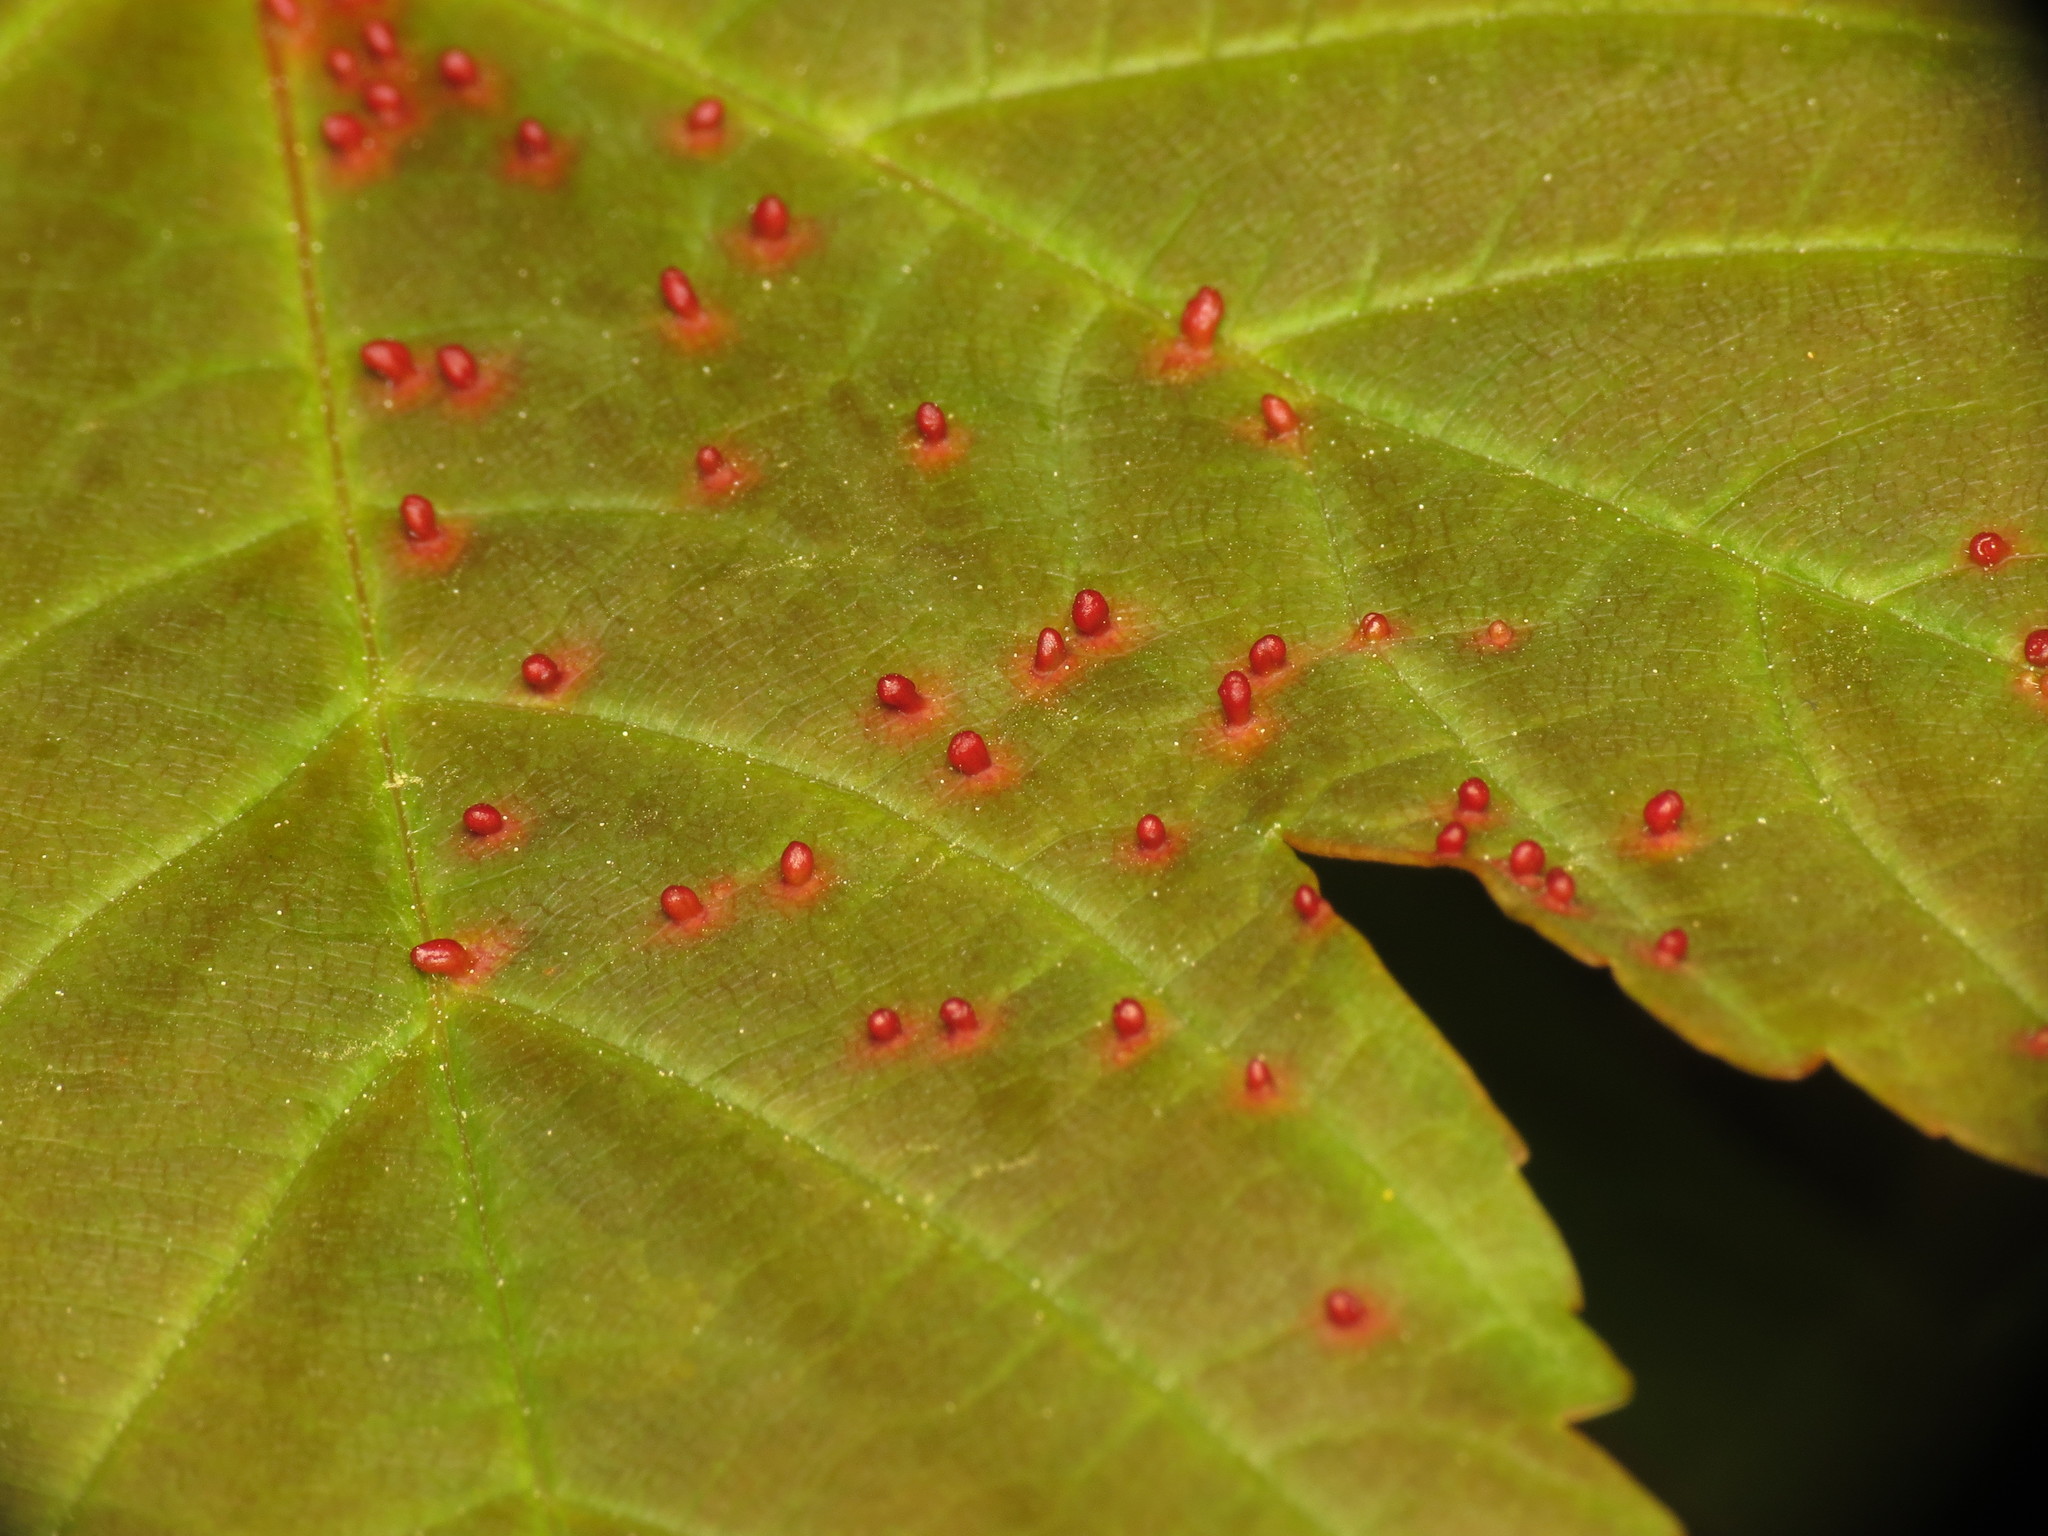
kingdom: Animalia
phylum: Arthropoda
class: Arachnida
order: Trombidiformes
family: Eriophyidae
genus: Aceria
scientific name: Aceria macrorhynchus
